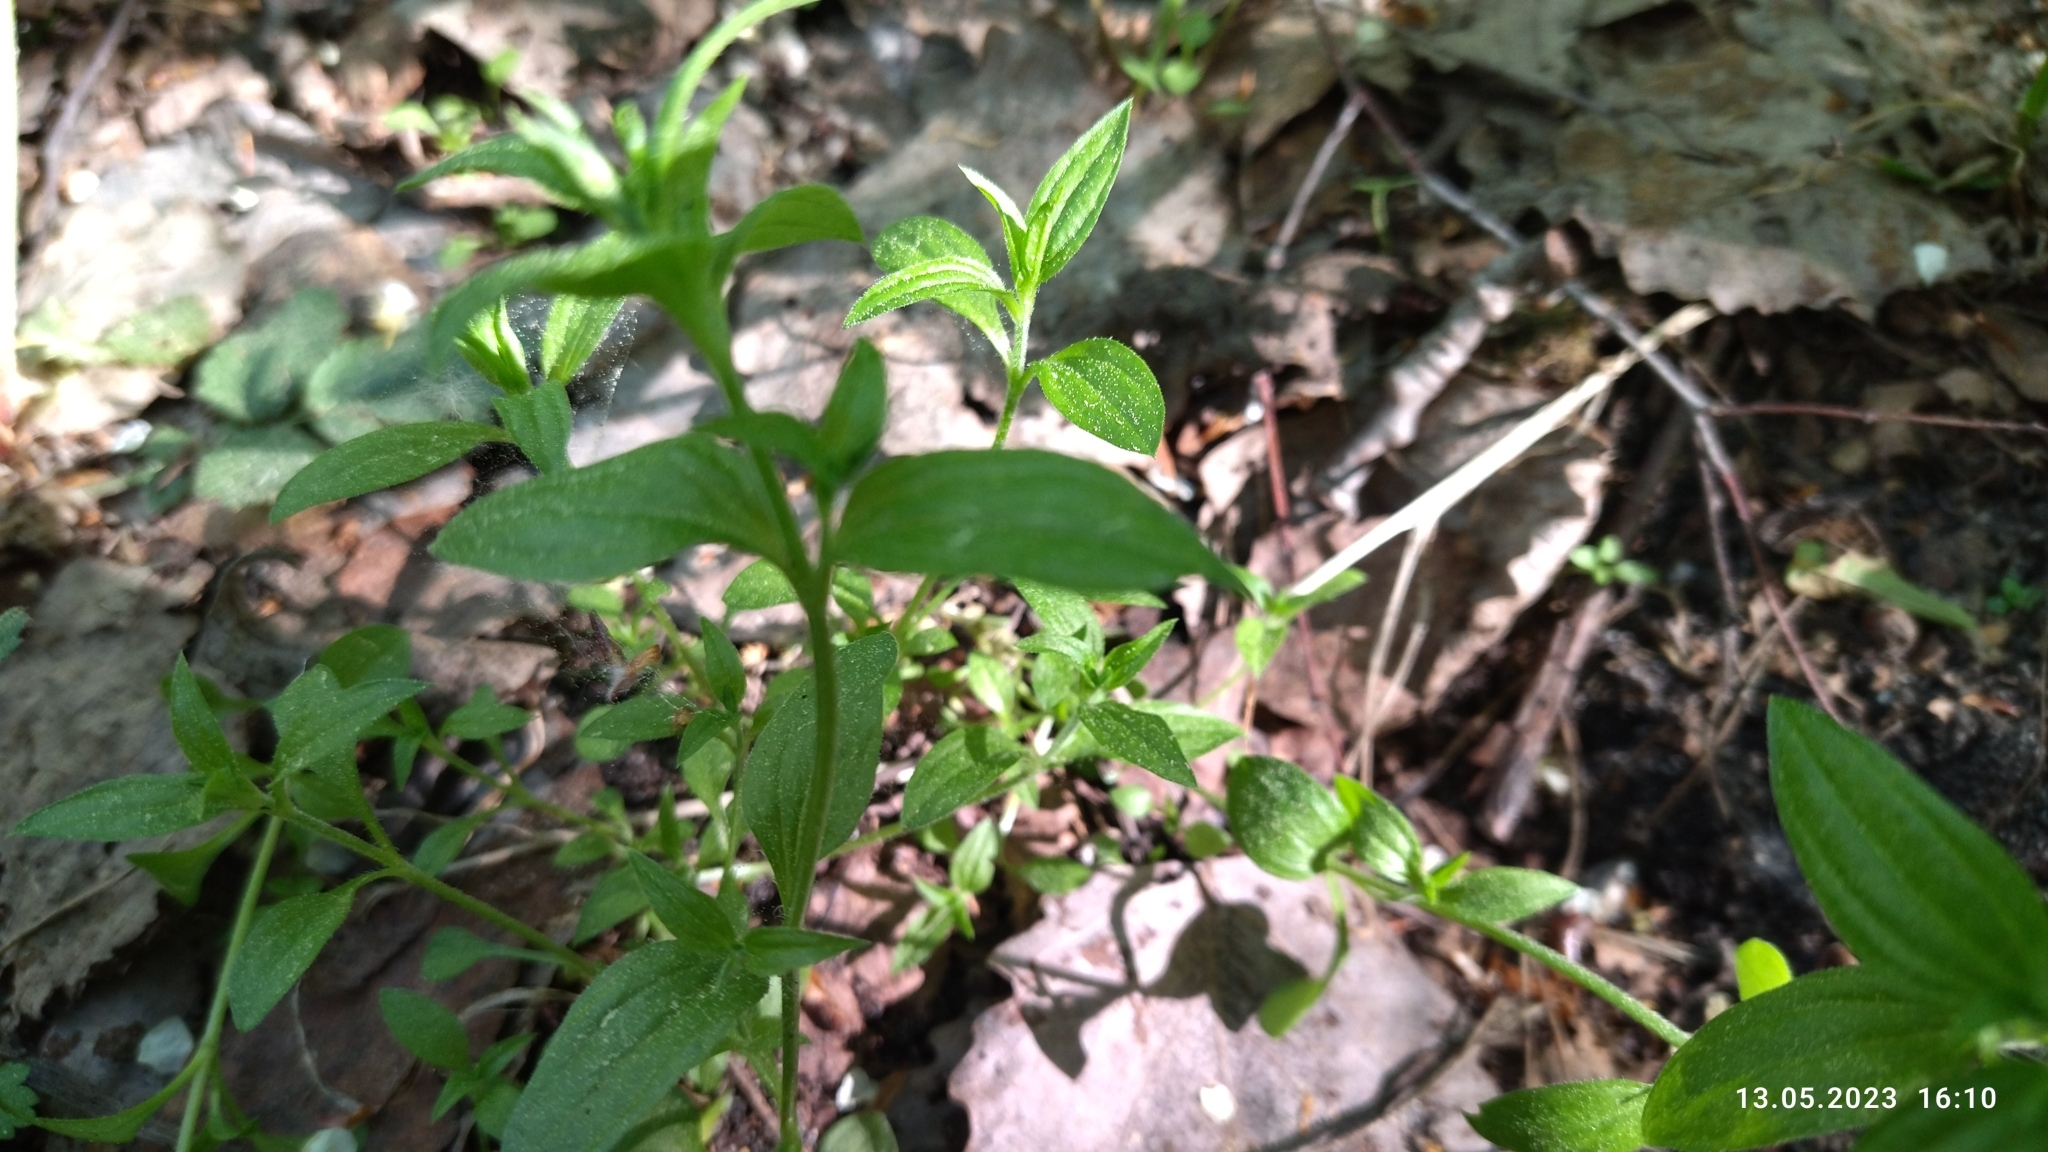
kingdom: Plantae
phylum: Tracheophyta
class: Magnoliopsida
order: Caryophyllales
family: Caryophyllaceae
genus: Moehringia
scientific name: Moehringia trinervia
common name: Three-nerved sandwort
